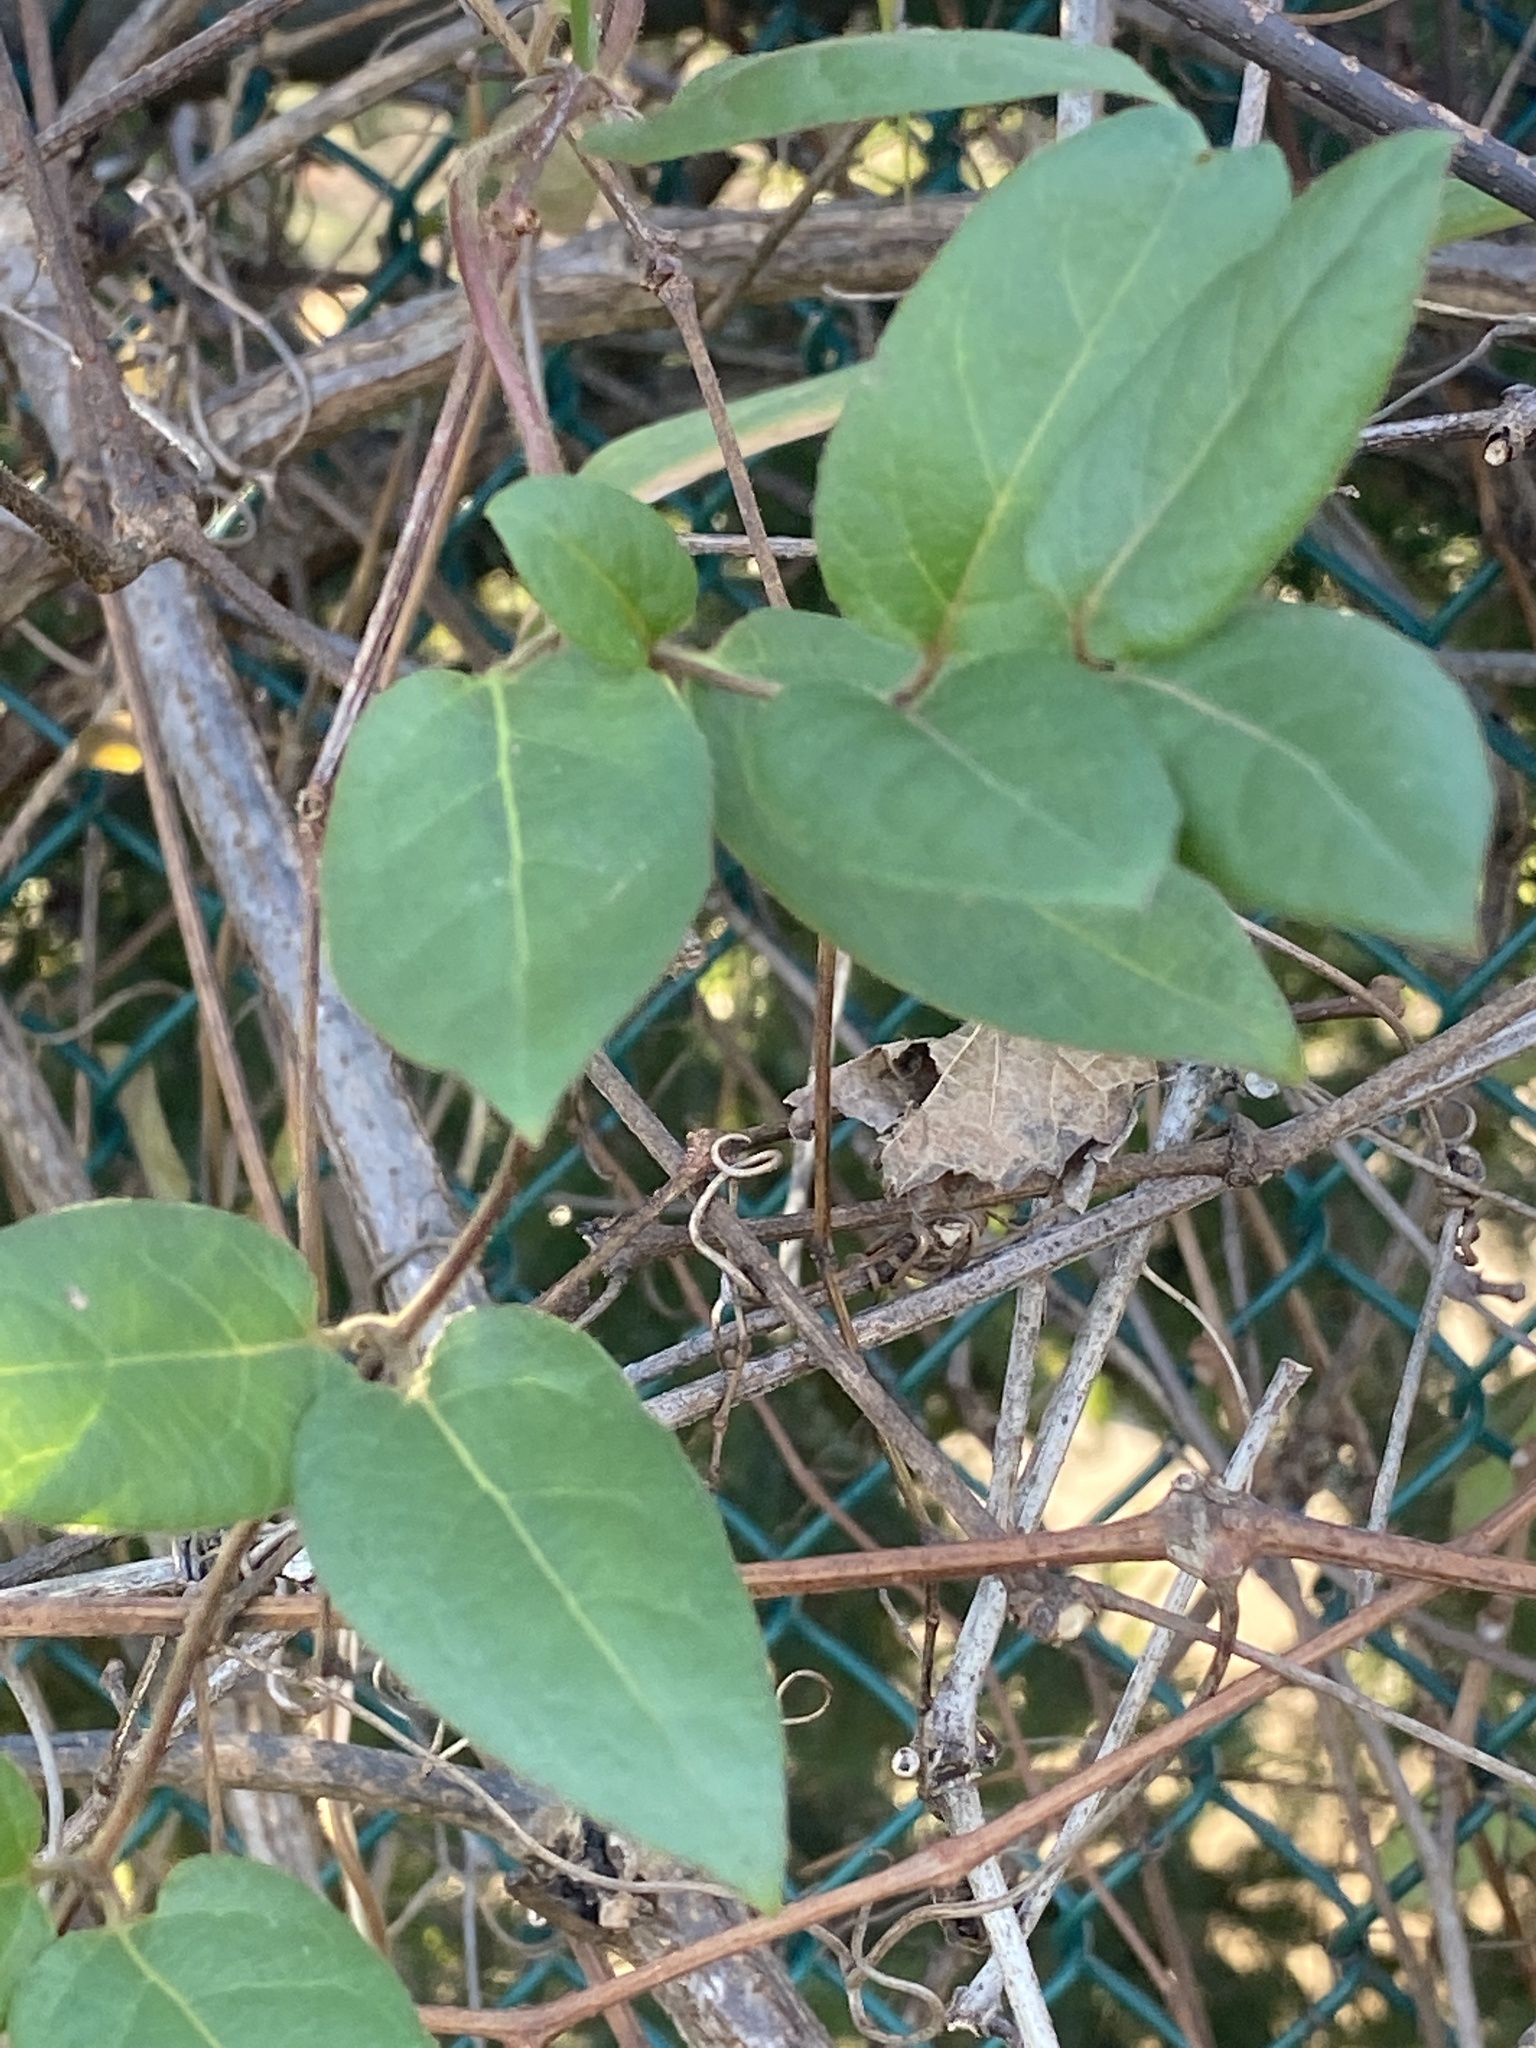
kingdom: Plantae
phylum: Tracheophyta
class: Magnoliopsida
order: Dipsacales
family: Caprifoliaceae
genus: Lonicera
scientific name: Lonicera japonica
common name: Japanese honeysuckle
